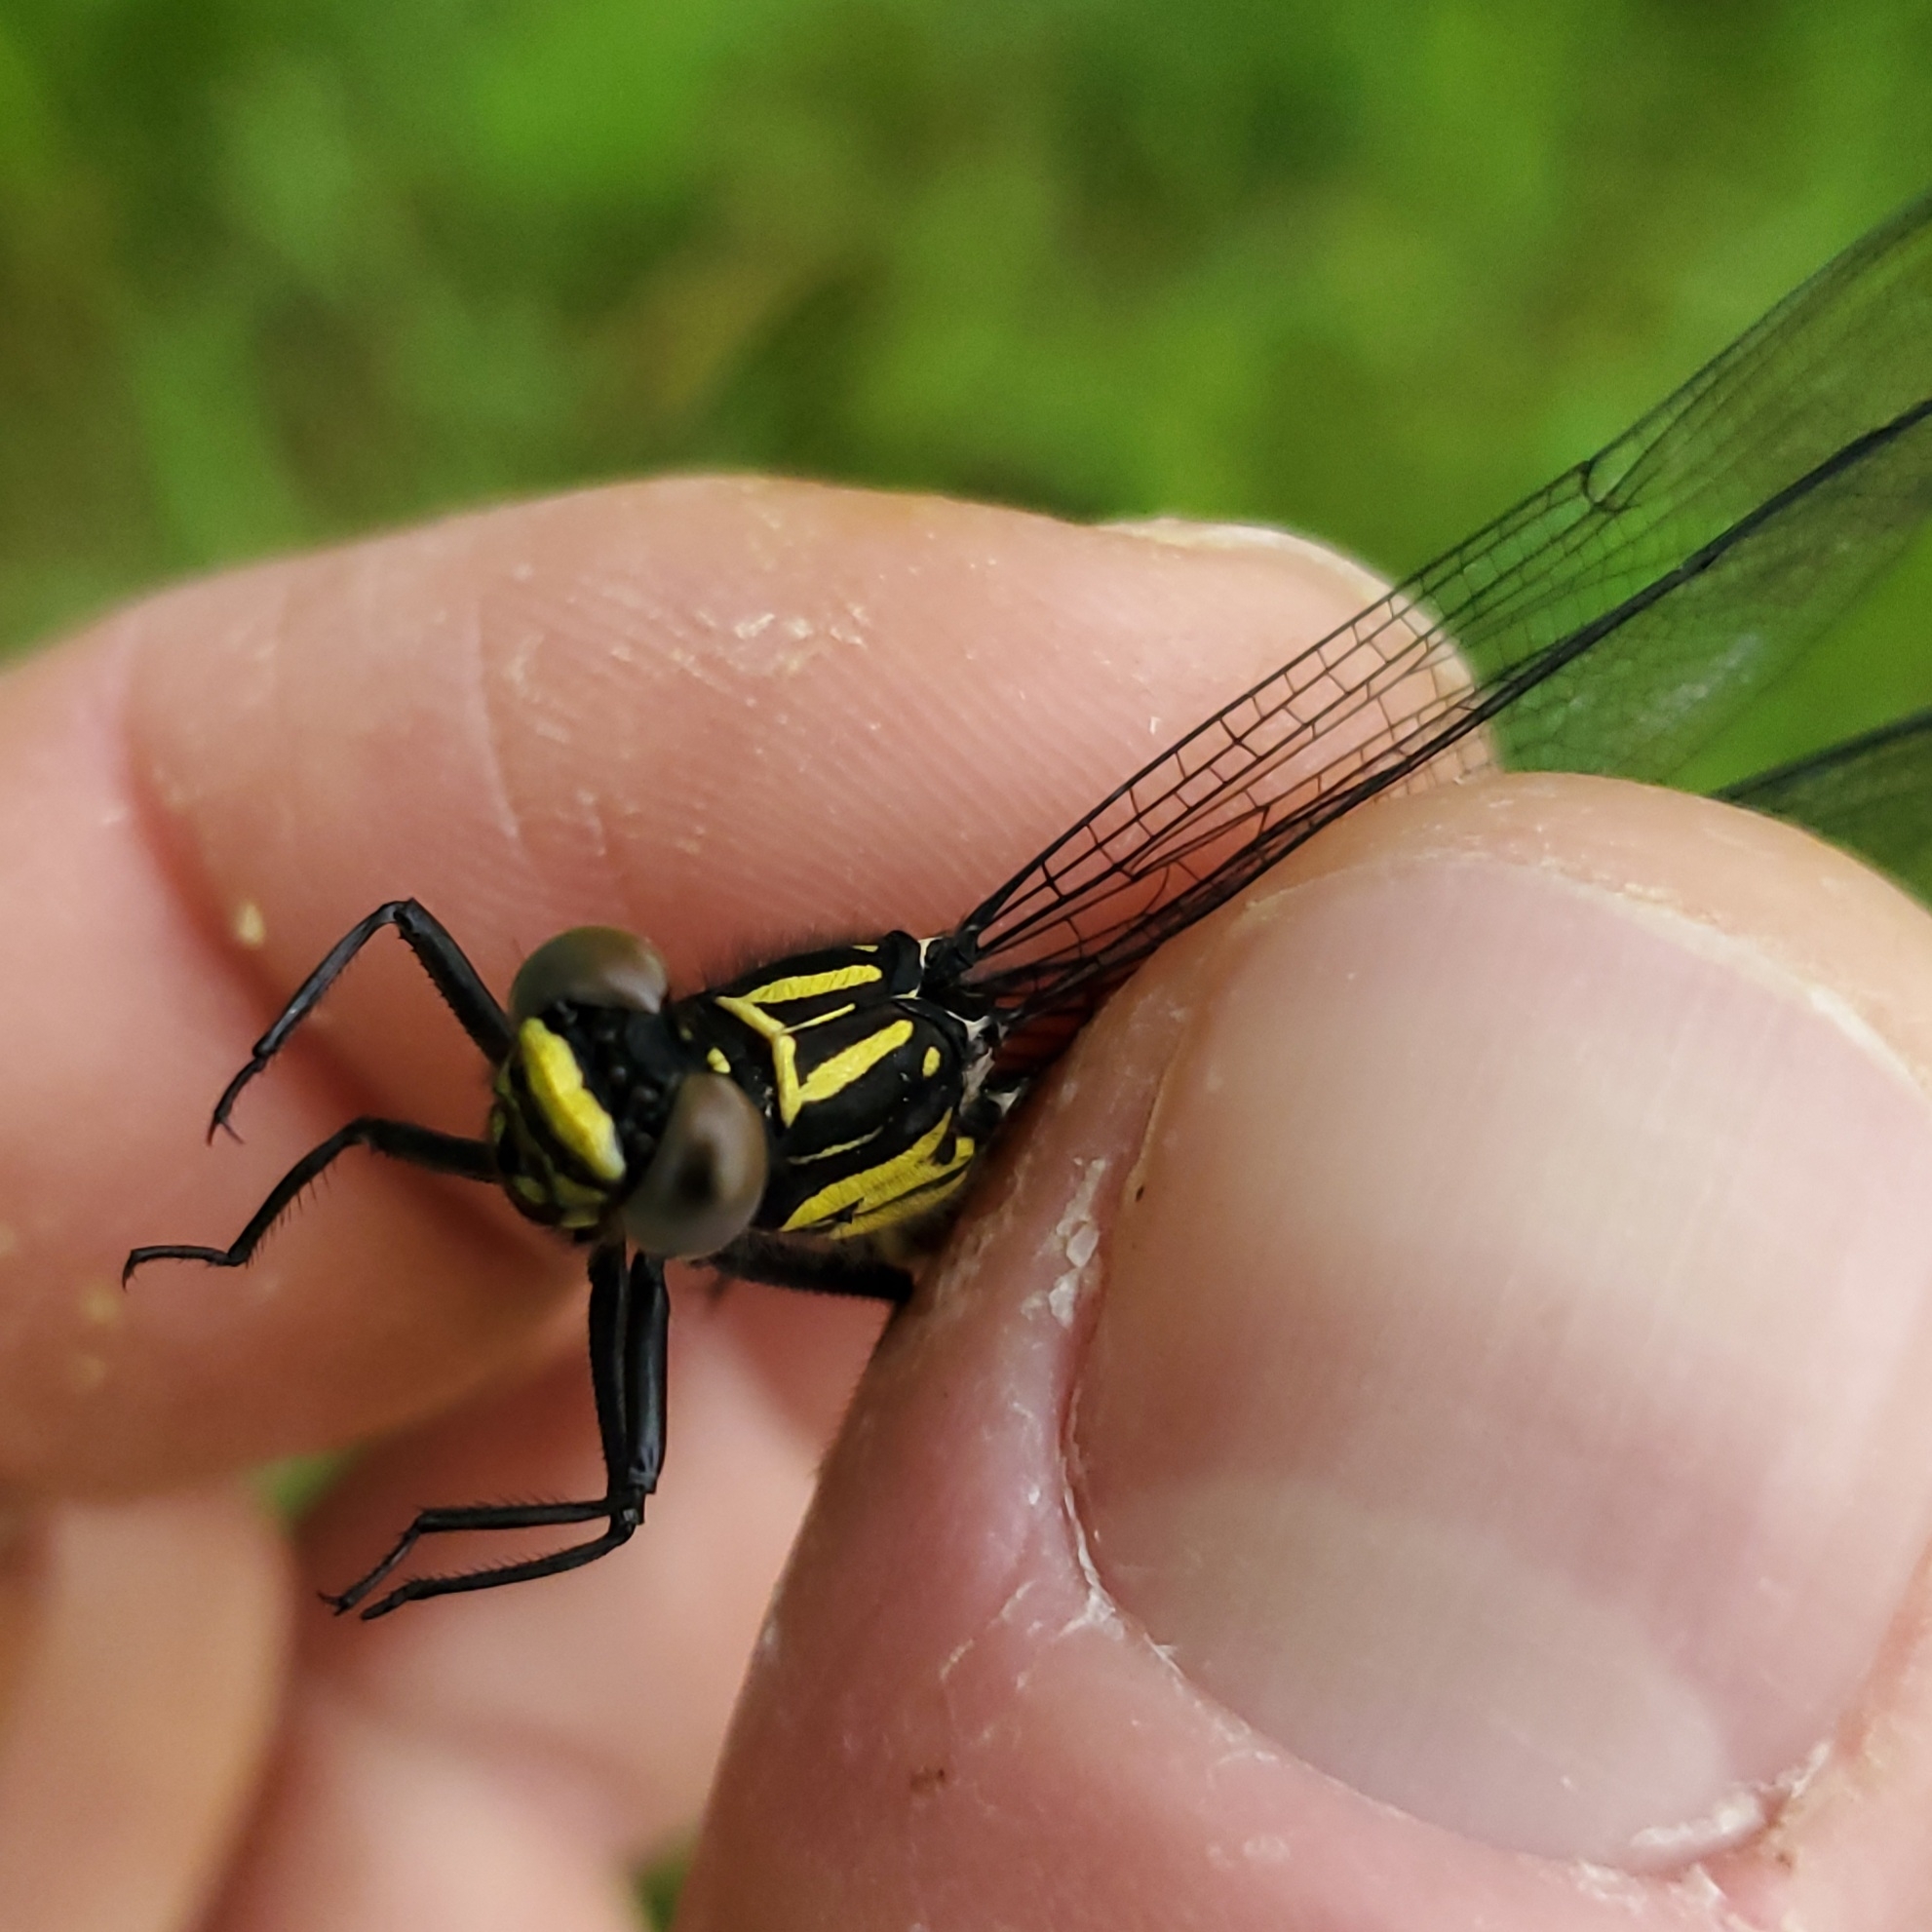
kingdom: Animalia
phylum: Arthropoda
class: Insecta
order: Odonata
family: Gomphidae
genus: Stenogomphurus
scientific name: Stenogomphurus rogersi
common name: Sable clubtail
